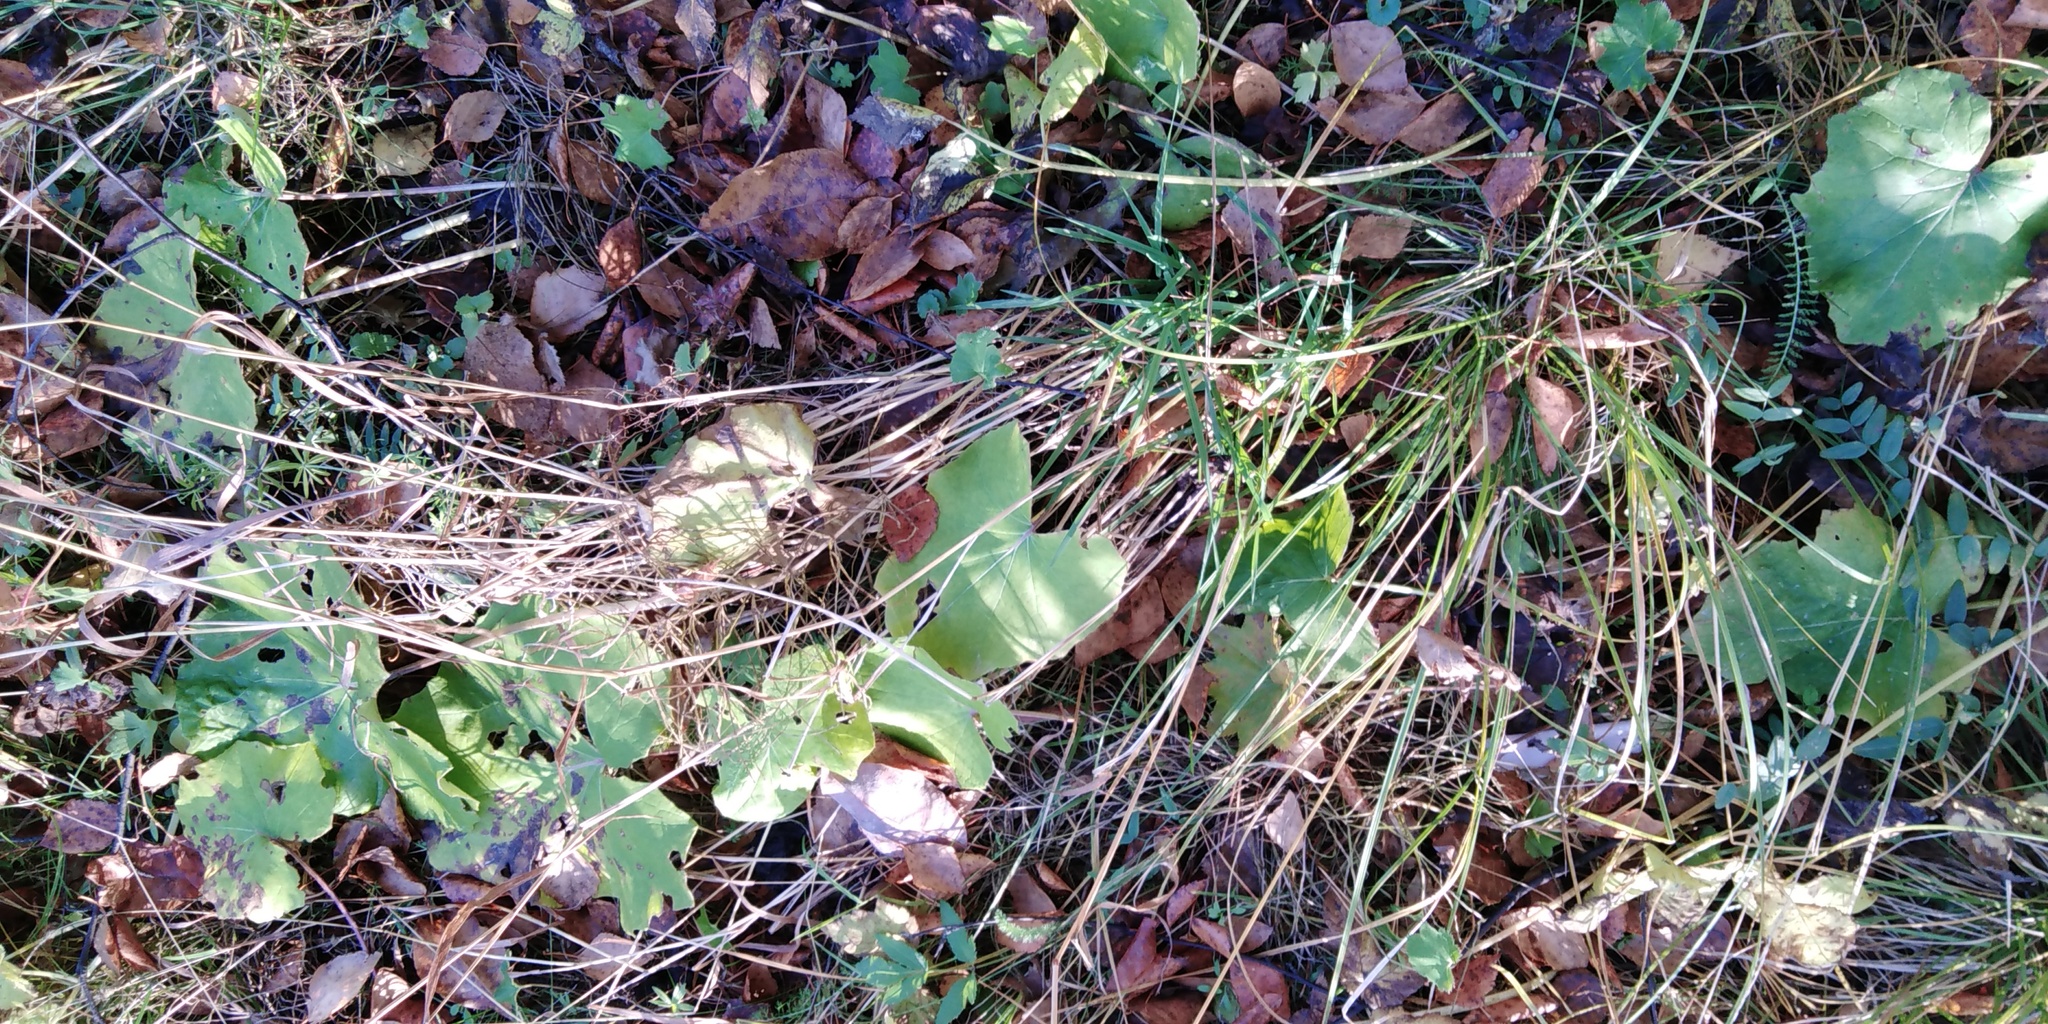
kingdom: Plantae
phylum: Tracheophyta
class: Magnoliopsida
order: Asterales
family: Asteraceae
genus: Tussilago
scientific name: Tussilago farfara
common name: Coltsfoot
